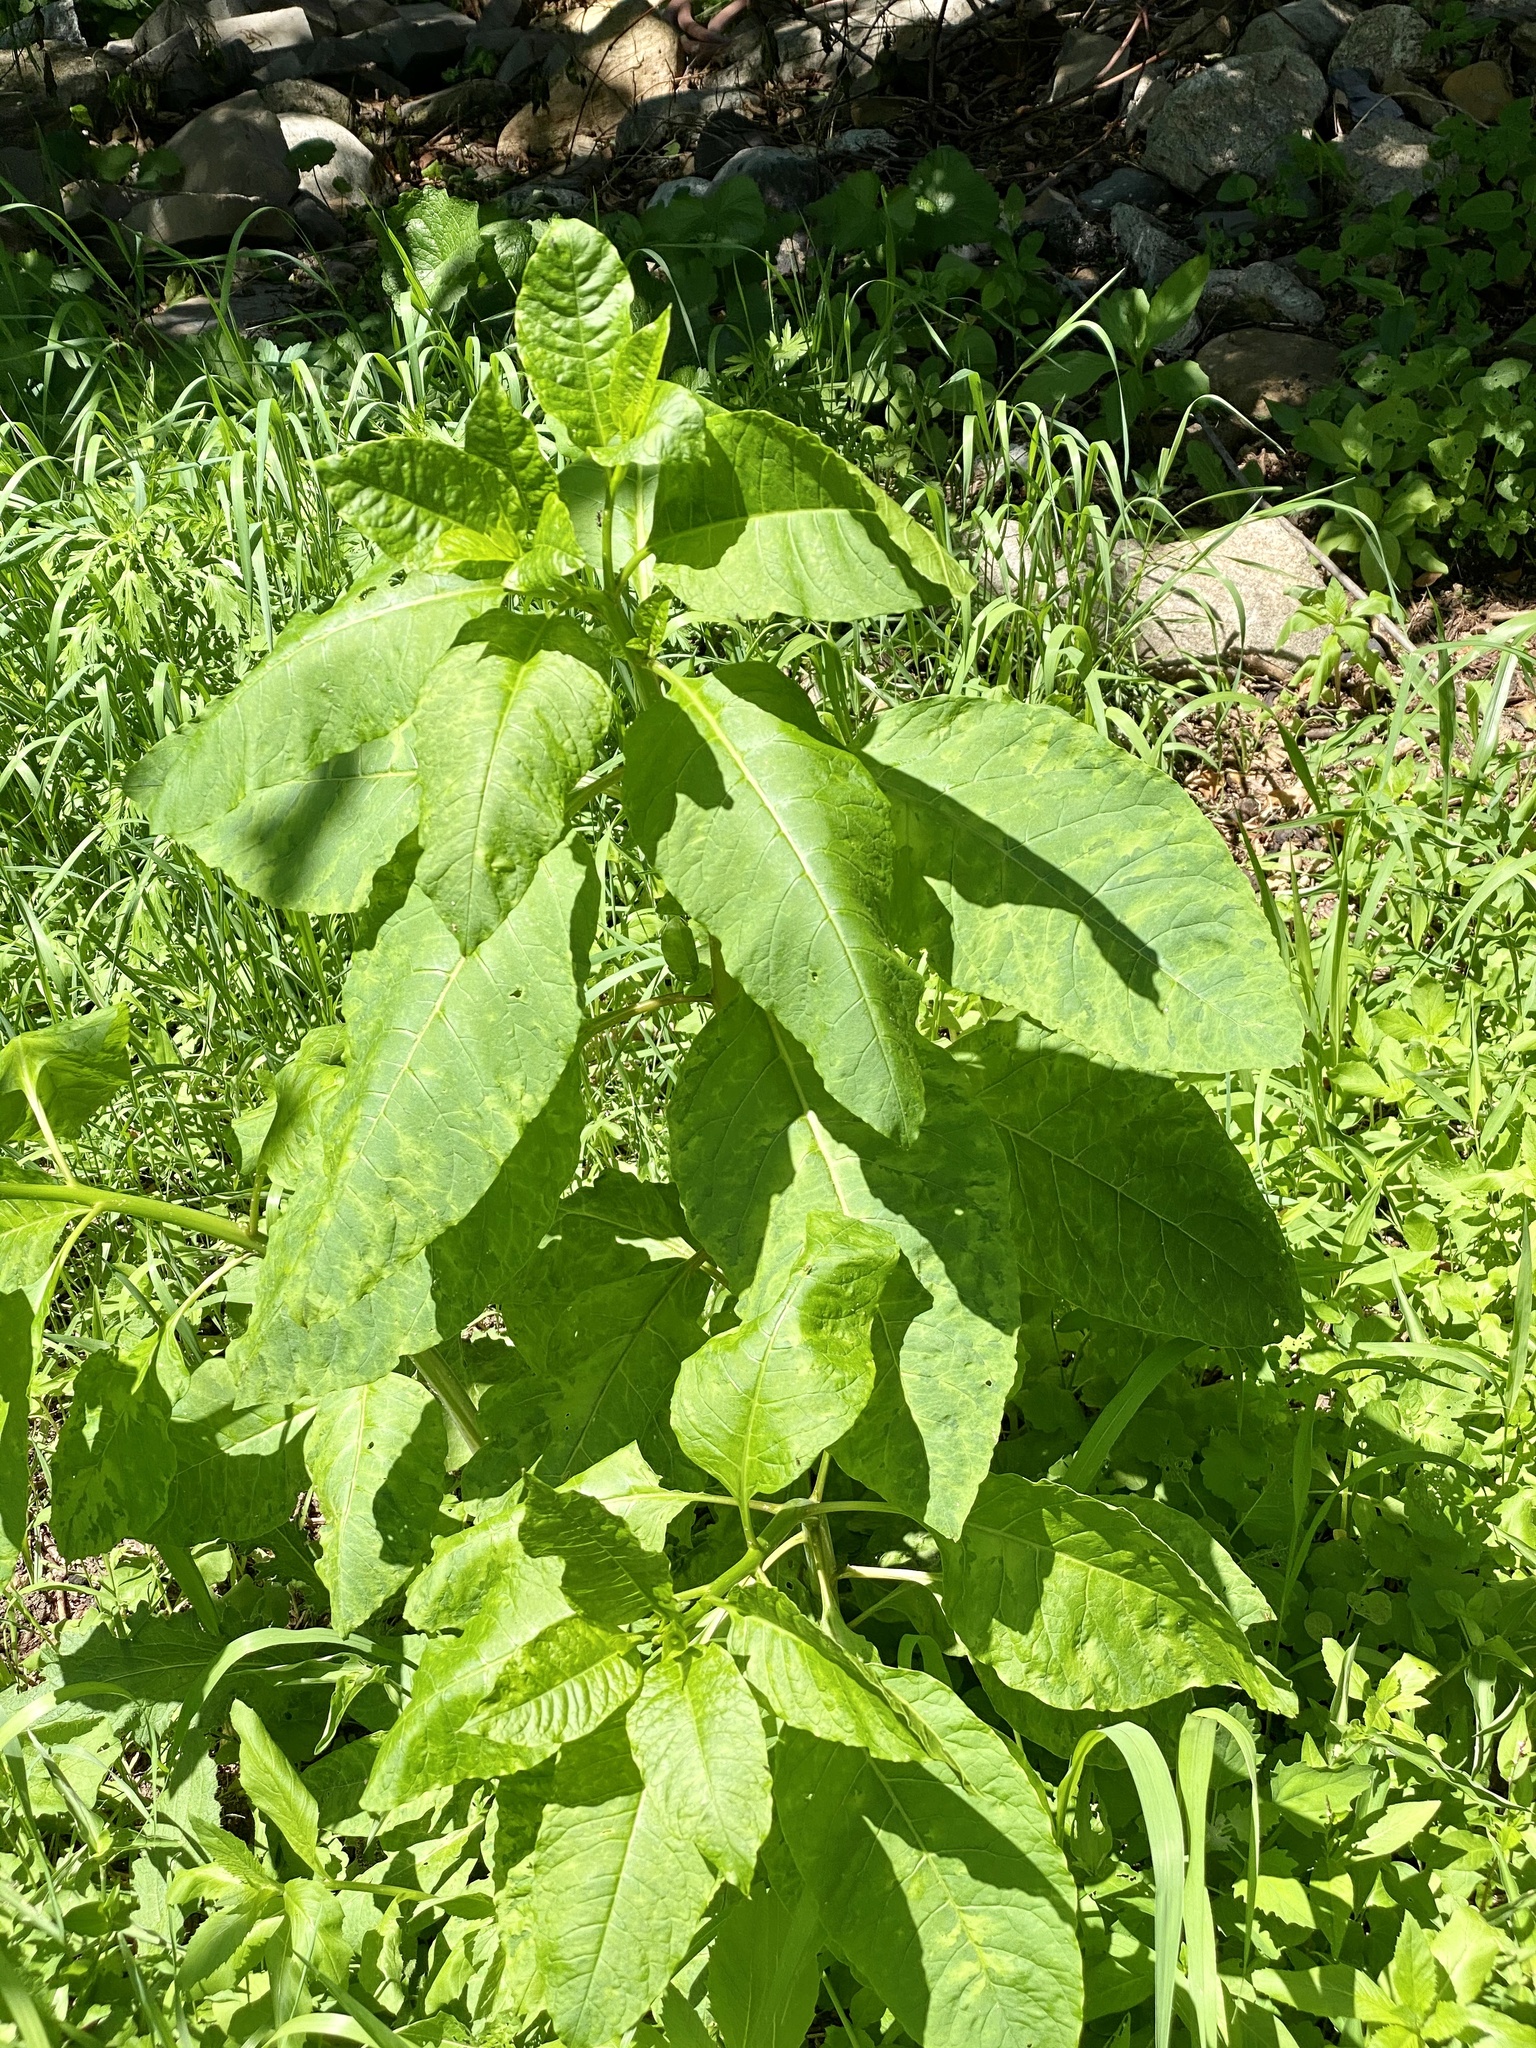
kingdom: Plantae
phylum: Tracheophyta
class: Magnoliopsida
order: Caryophyllales
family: Phytolaccaceae
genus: Phytolacca
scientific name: Phytolacca americana
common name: American pokeweed
